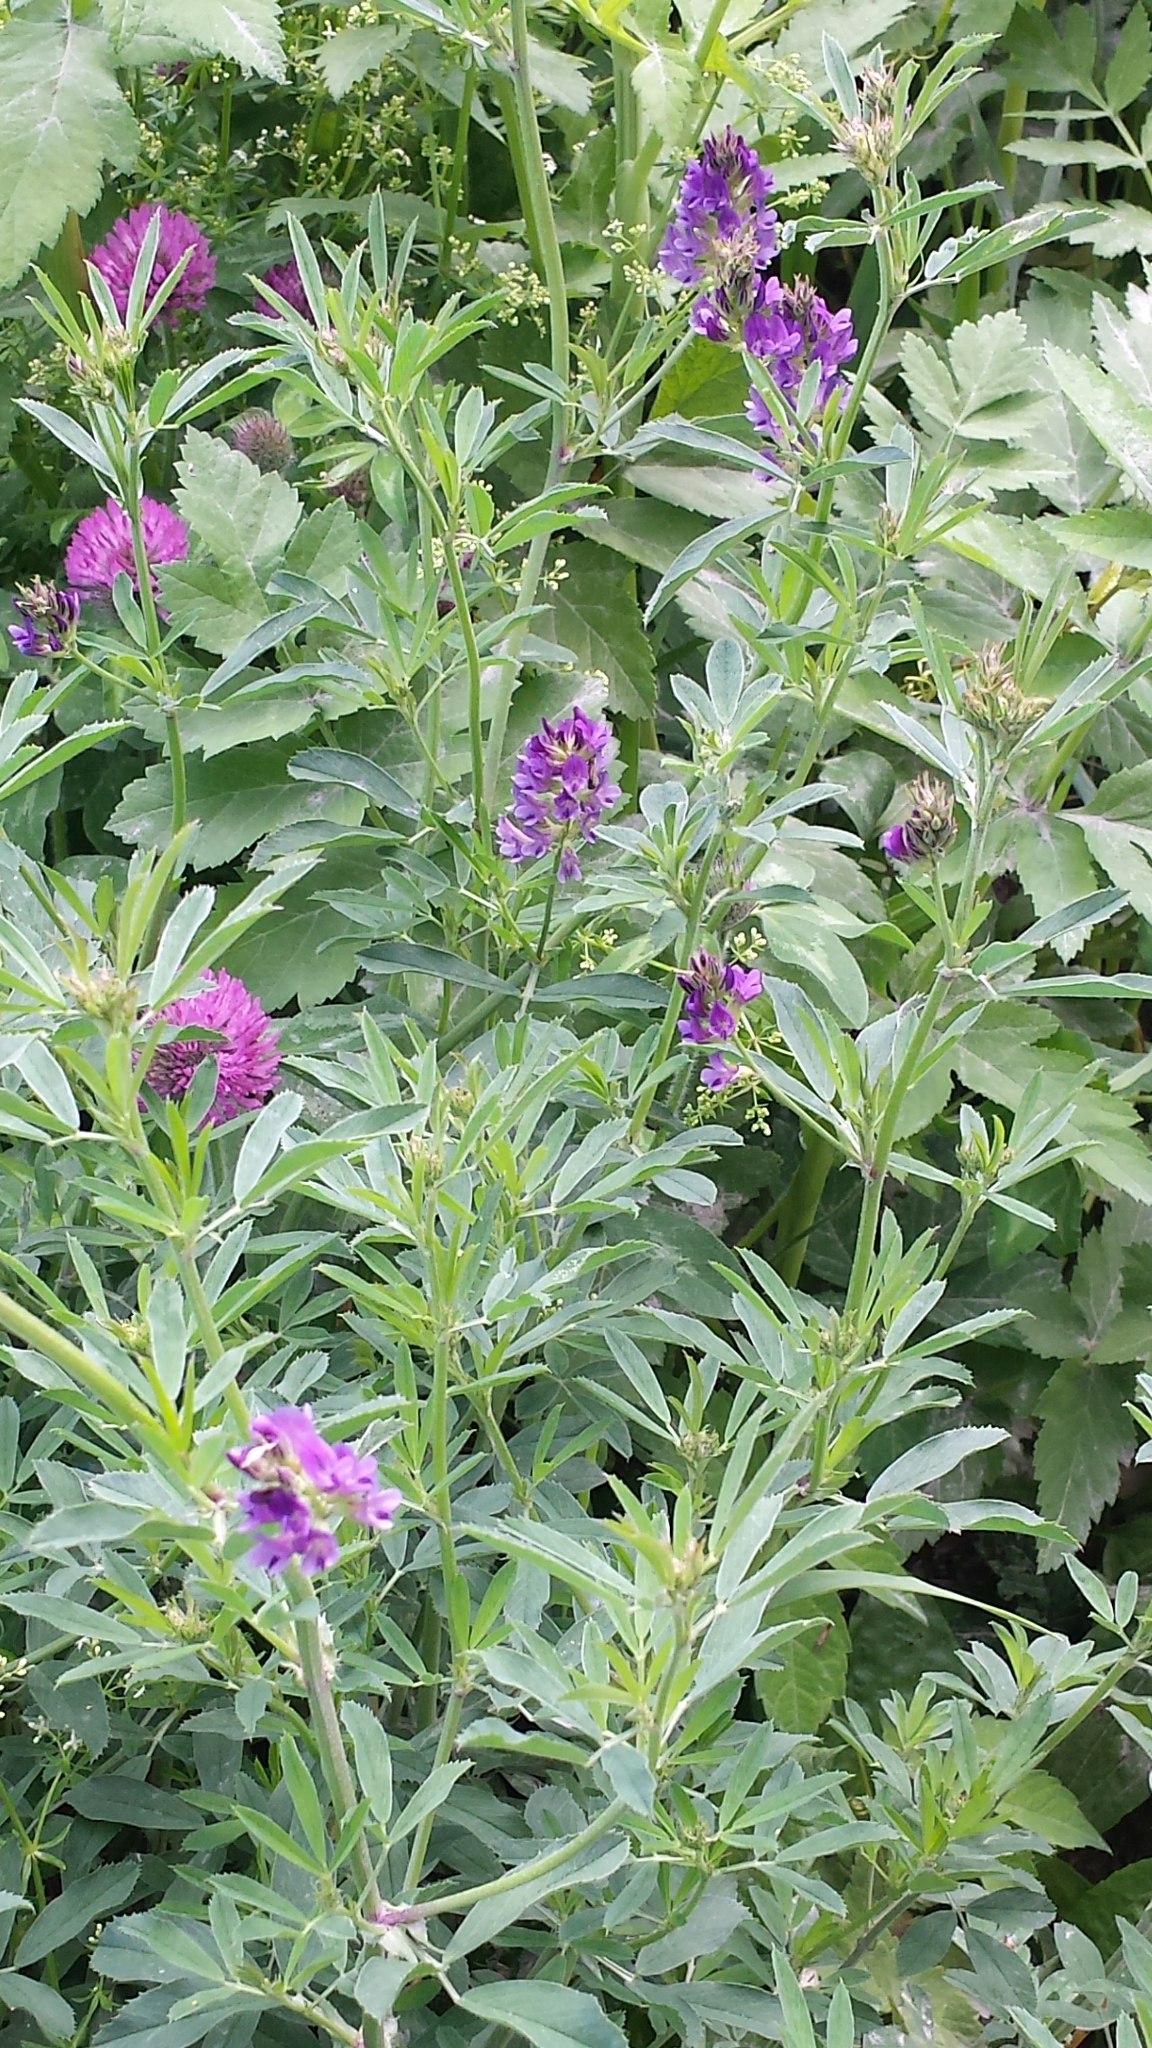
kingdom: Plantae
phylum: Tracheophyta
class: Magnoliopsida
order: Fabales
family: Fabaceae
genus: Medicago
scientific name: Medicago sativa
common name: Alfalfa
